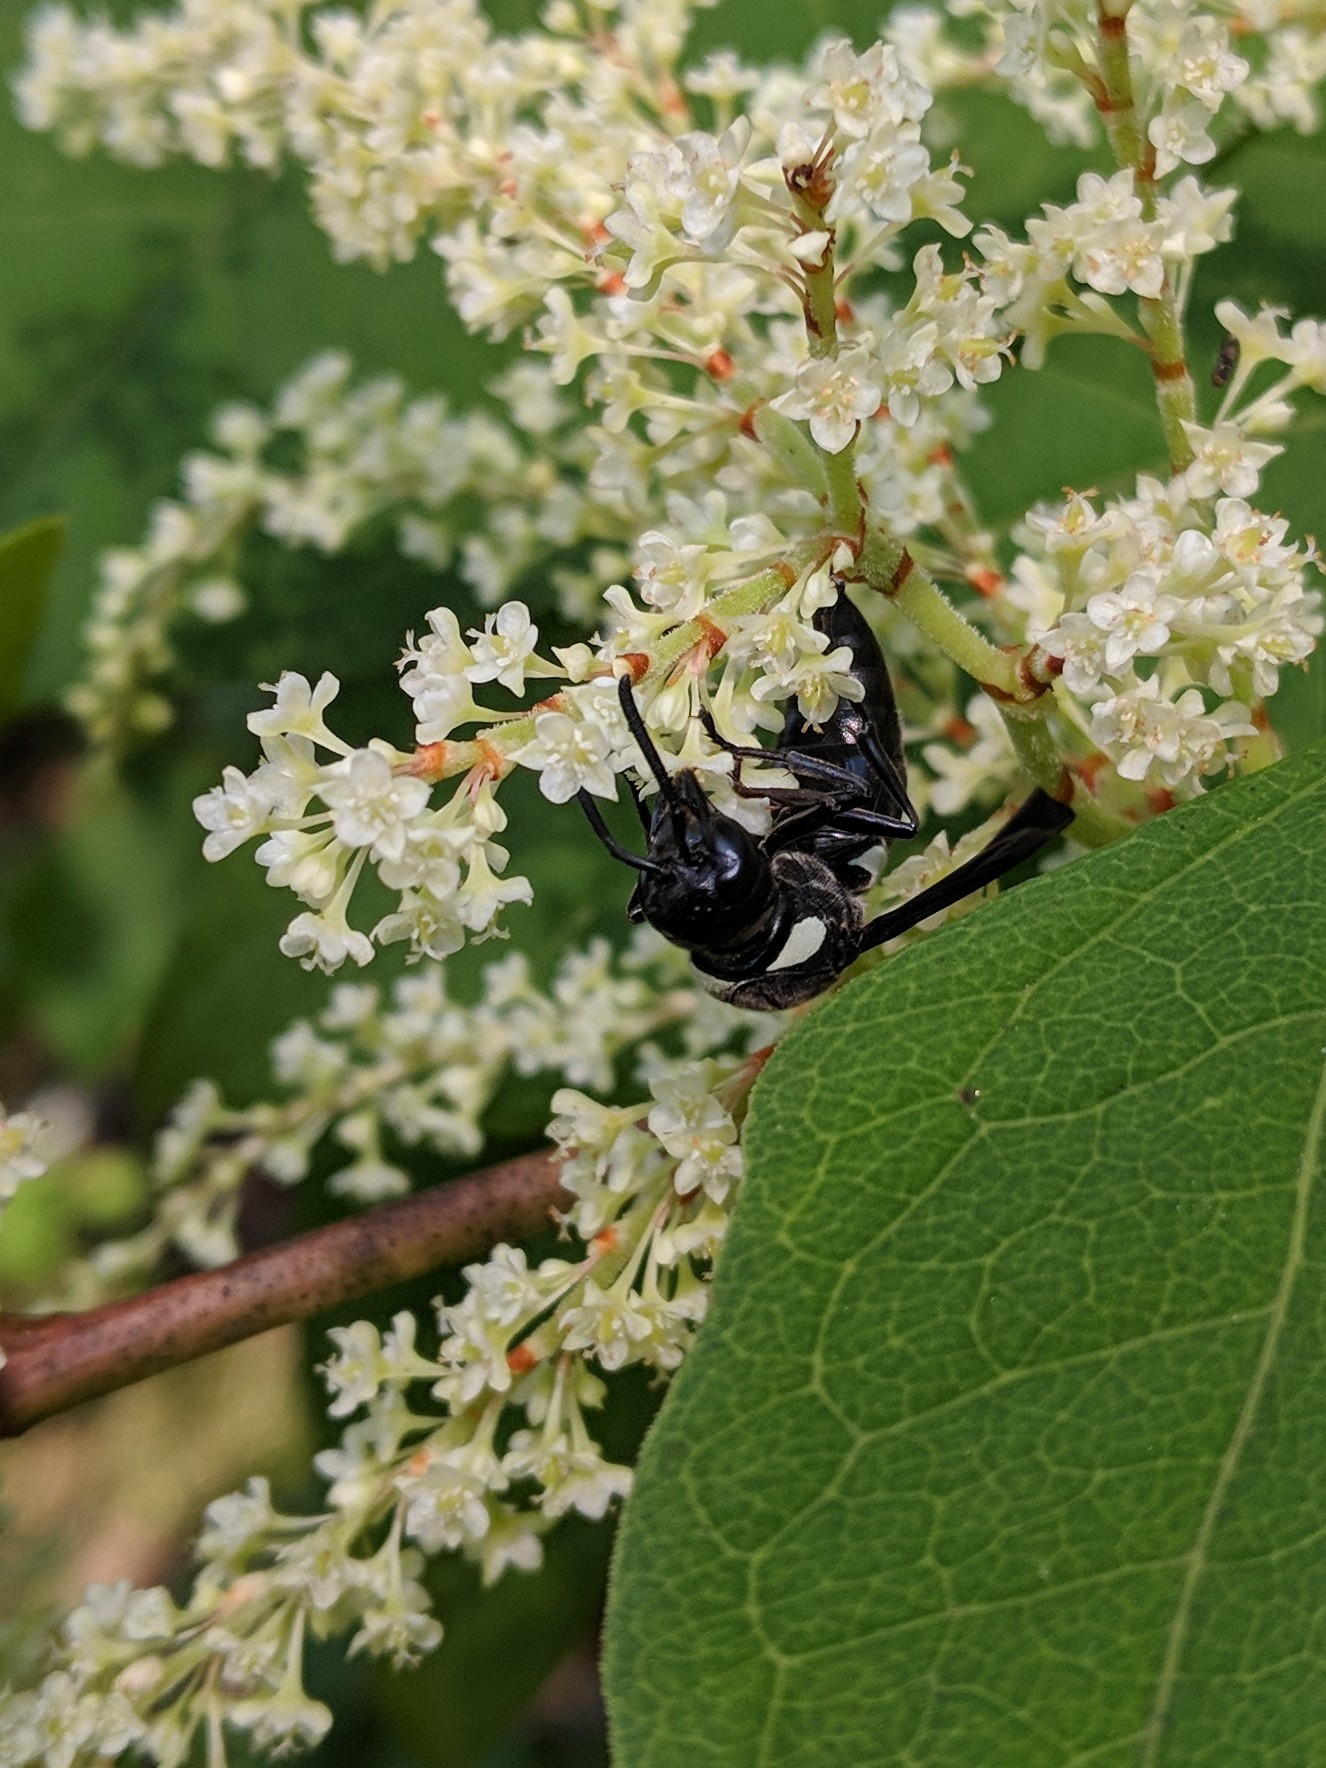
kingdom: Animalia
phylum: Arthropoda
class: Insecta
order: Hymenoptera
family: Eumenidae
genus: Monobia
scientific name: Monobia quadridens
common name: Four-toothed mason wasp
